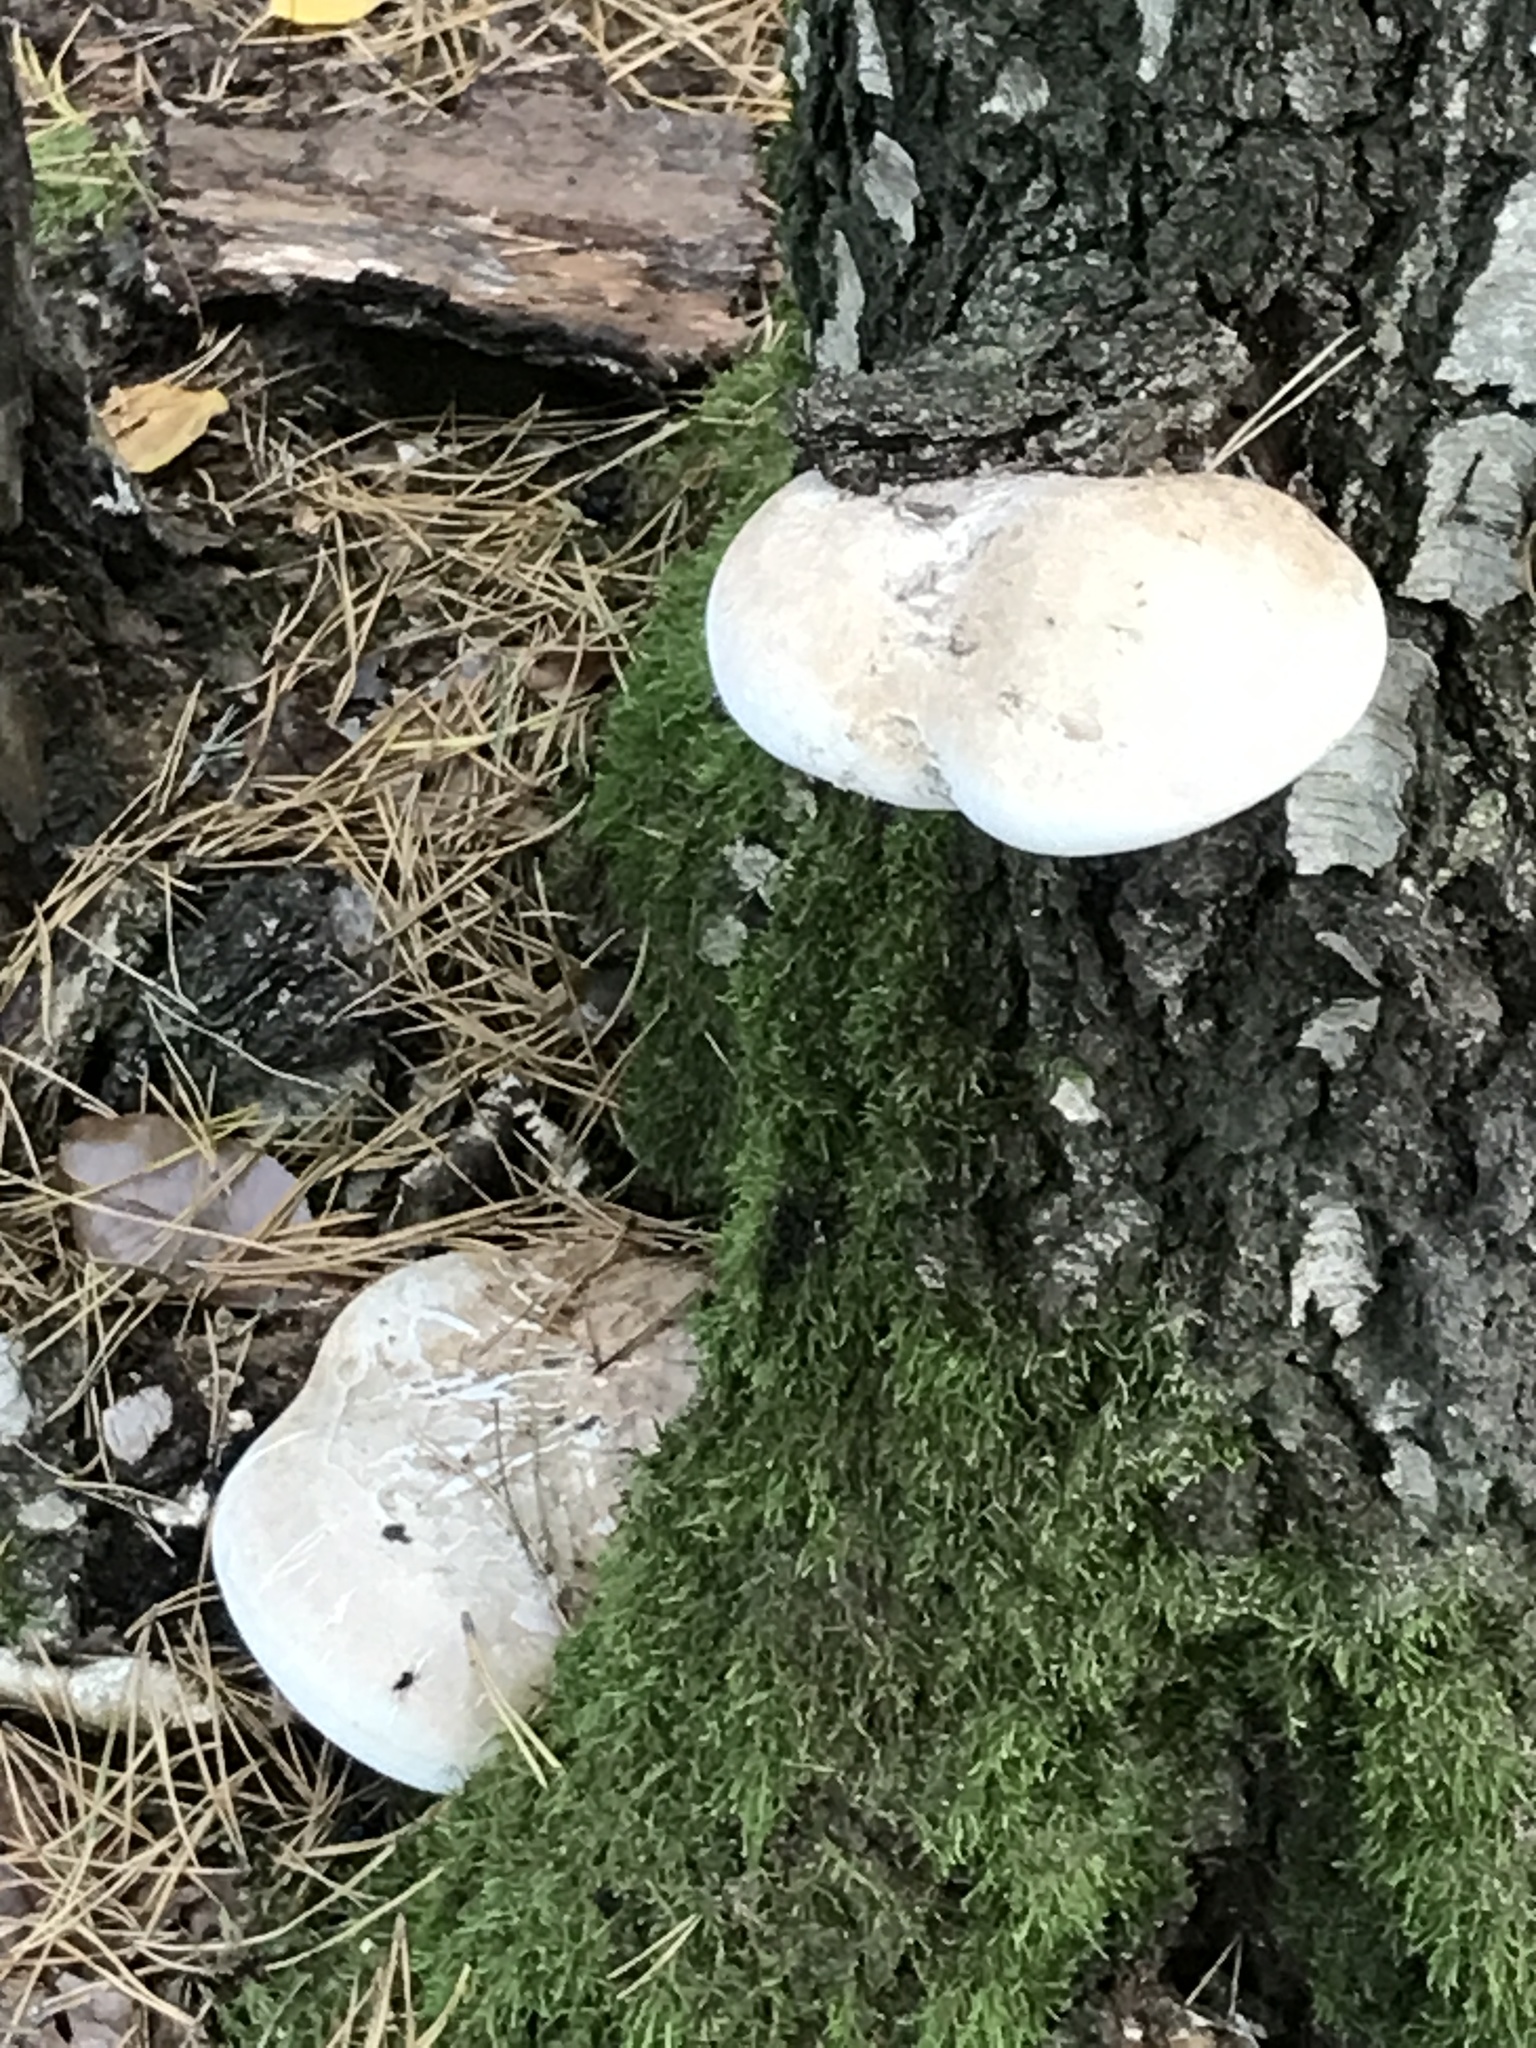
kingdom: Fungi
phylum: Basidiomycota
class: Agaricomycetes
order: Polyporales
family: Fomitopsidaceae
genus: Fomitopsis
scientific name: Fomitopsis betulina
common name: Birch polypore
